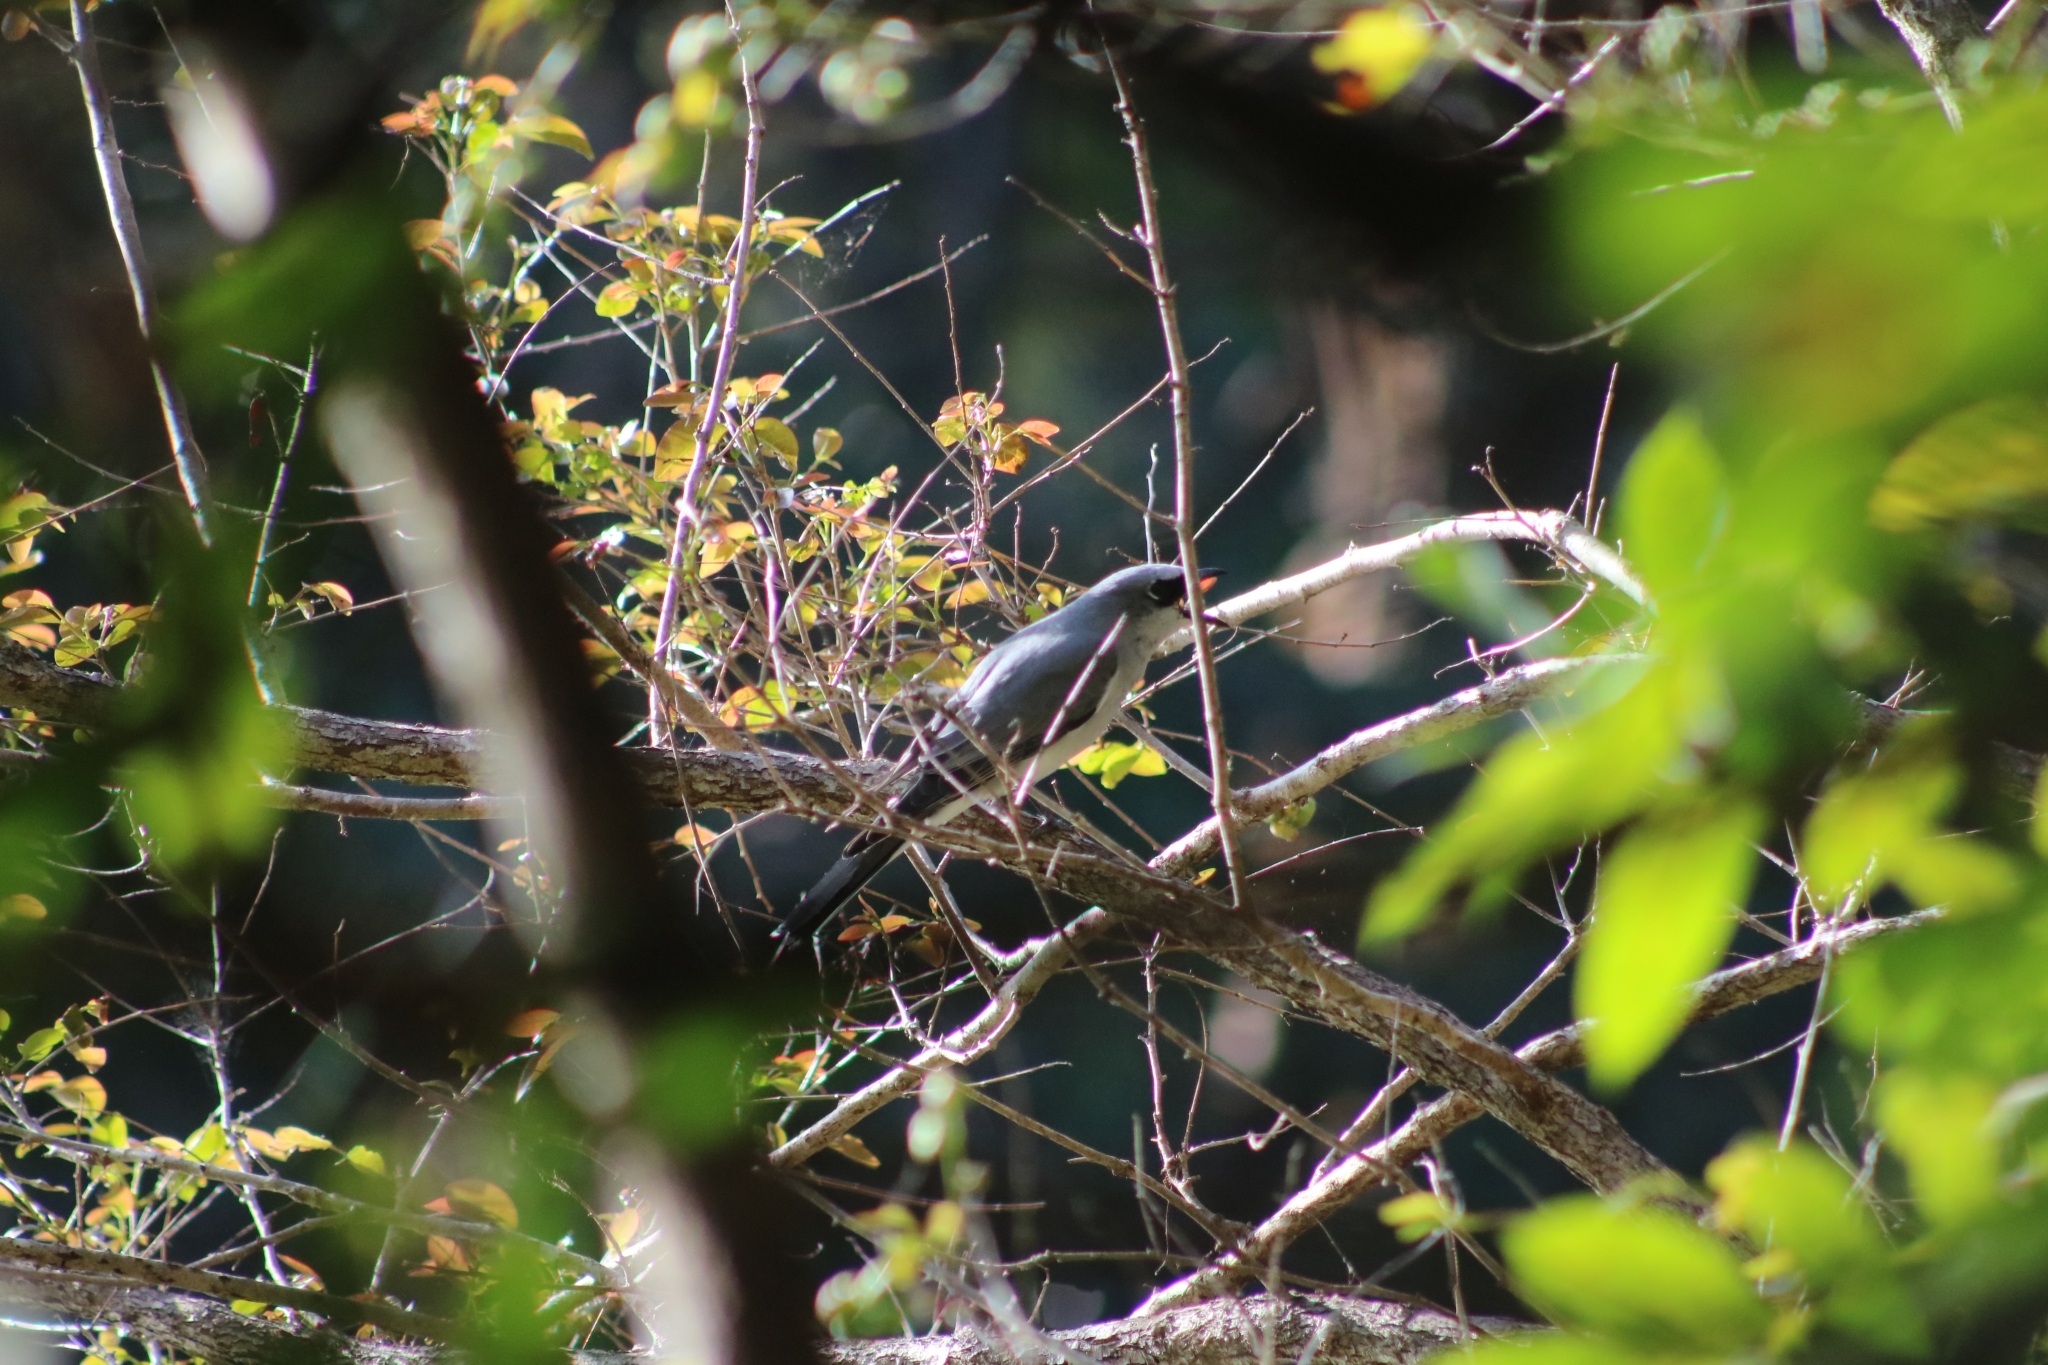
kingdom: Animalia
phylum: Chordata
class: Aves
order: Passeriformes
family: Campephagidae
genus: Coracina
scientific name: Coracina papuensis
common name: White-bellied cuckooshrike
